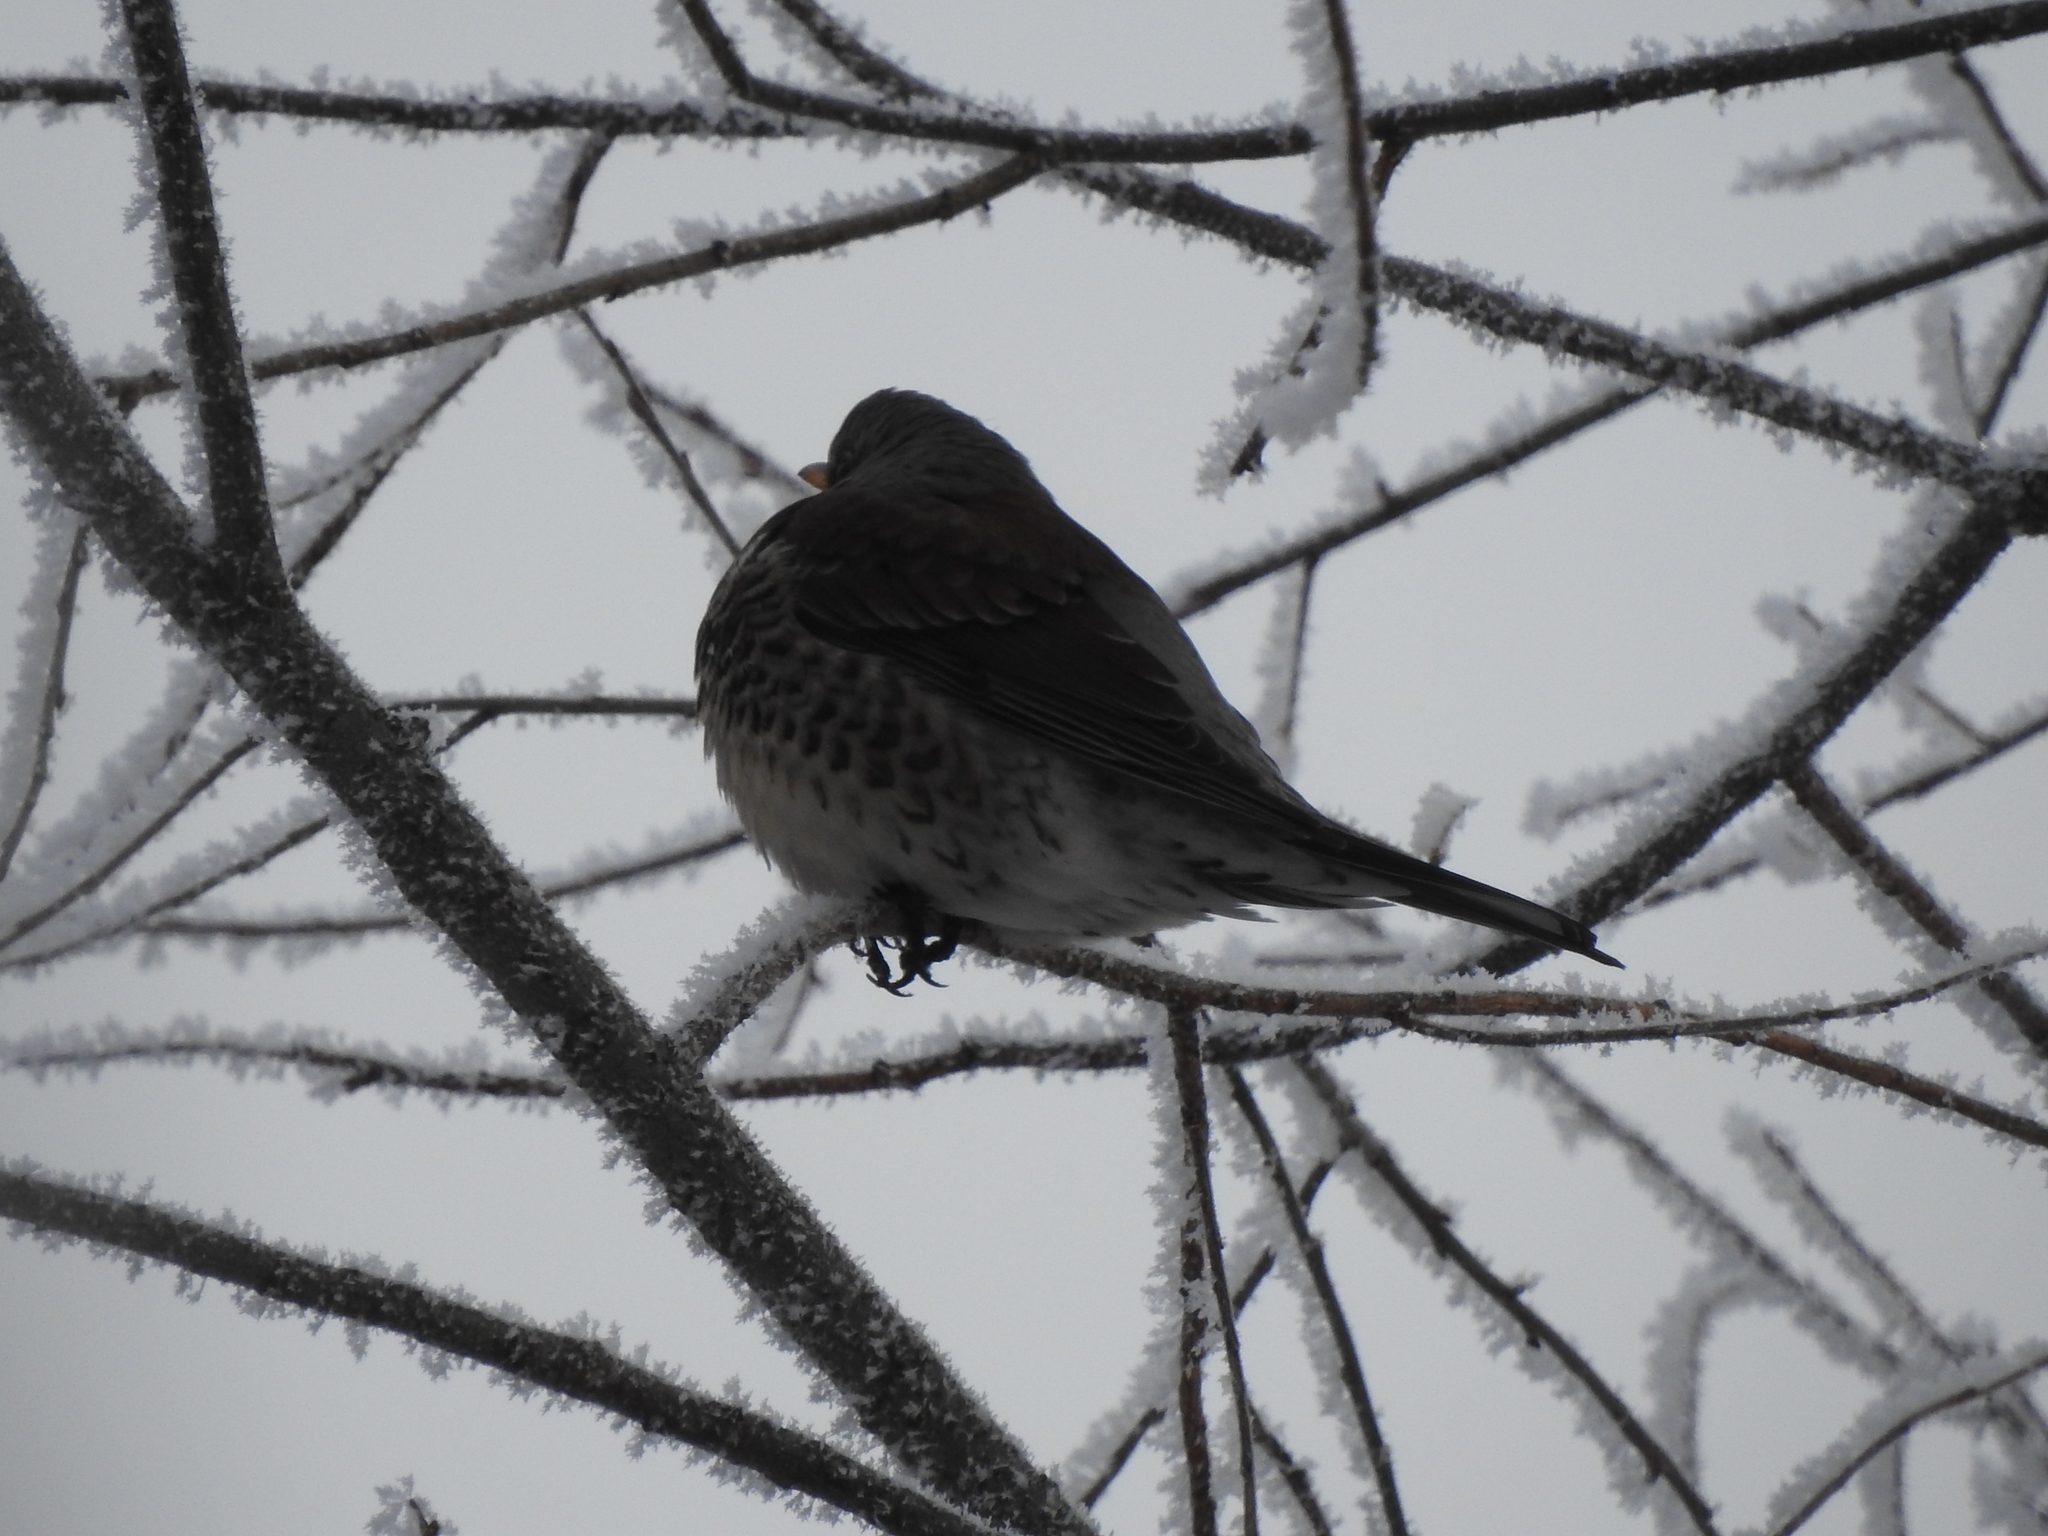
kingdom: Animalia
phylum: Chordata
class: Aves
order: Passeriformes
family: Turdidae
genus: Turdus
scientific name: Turdus pilaris
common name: Fieldfare
